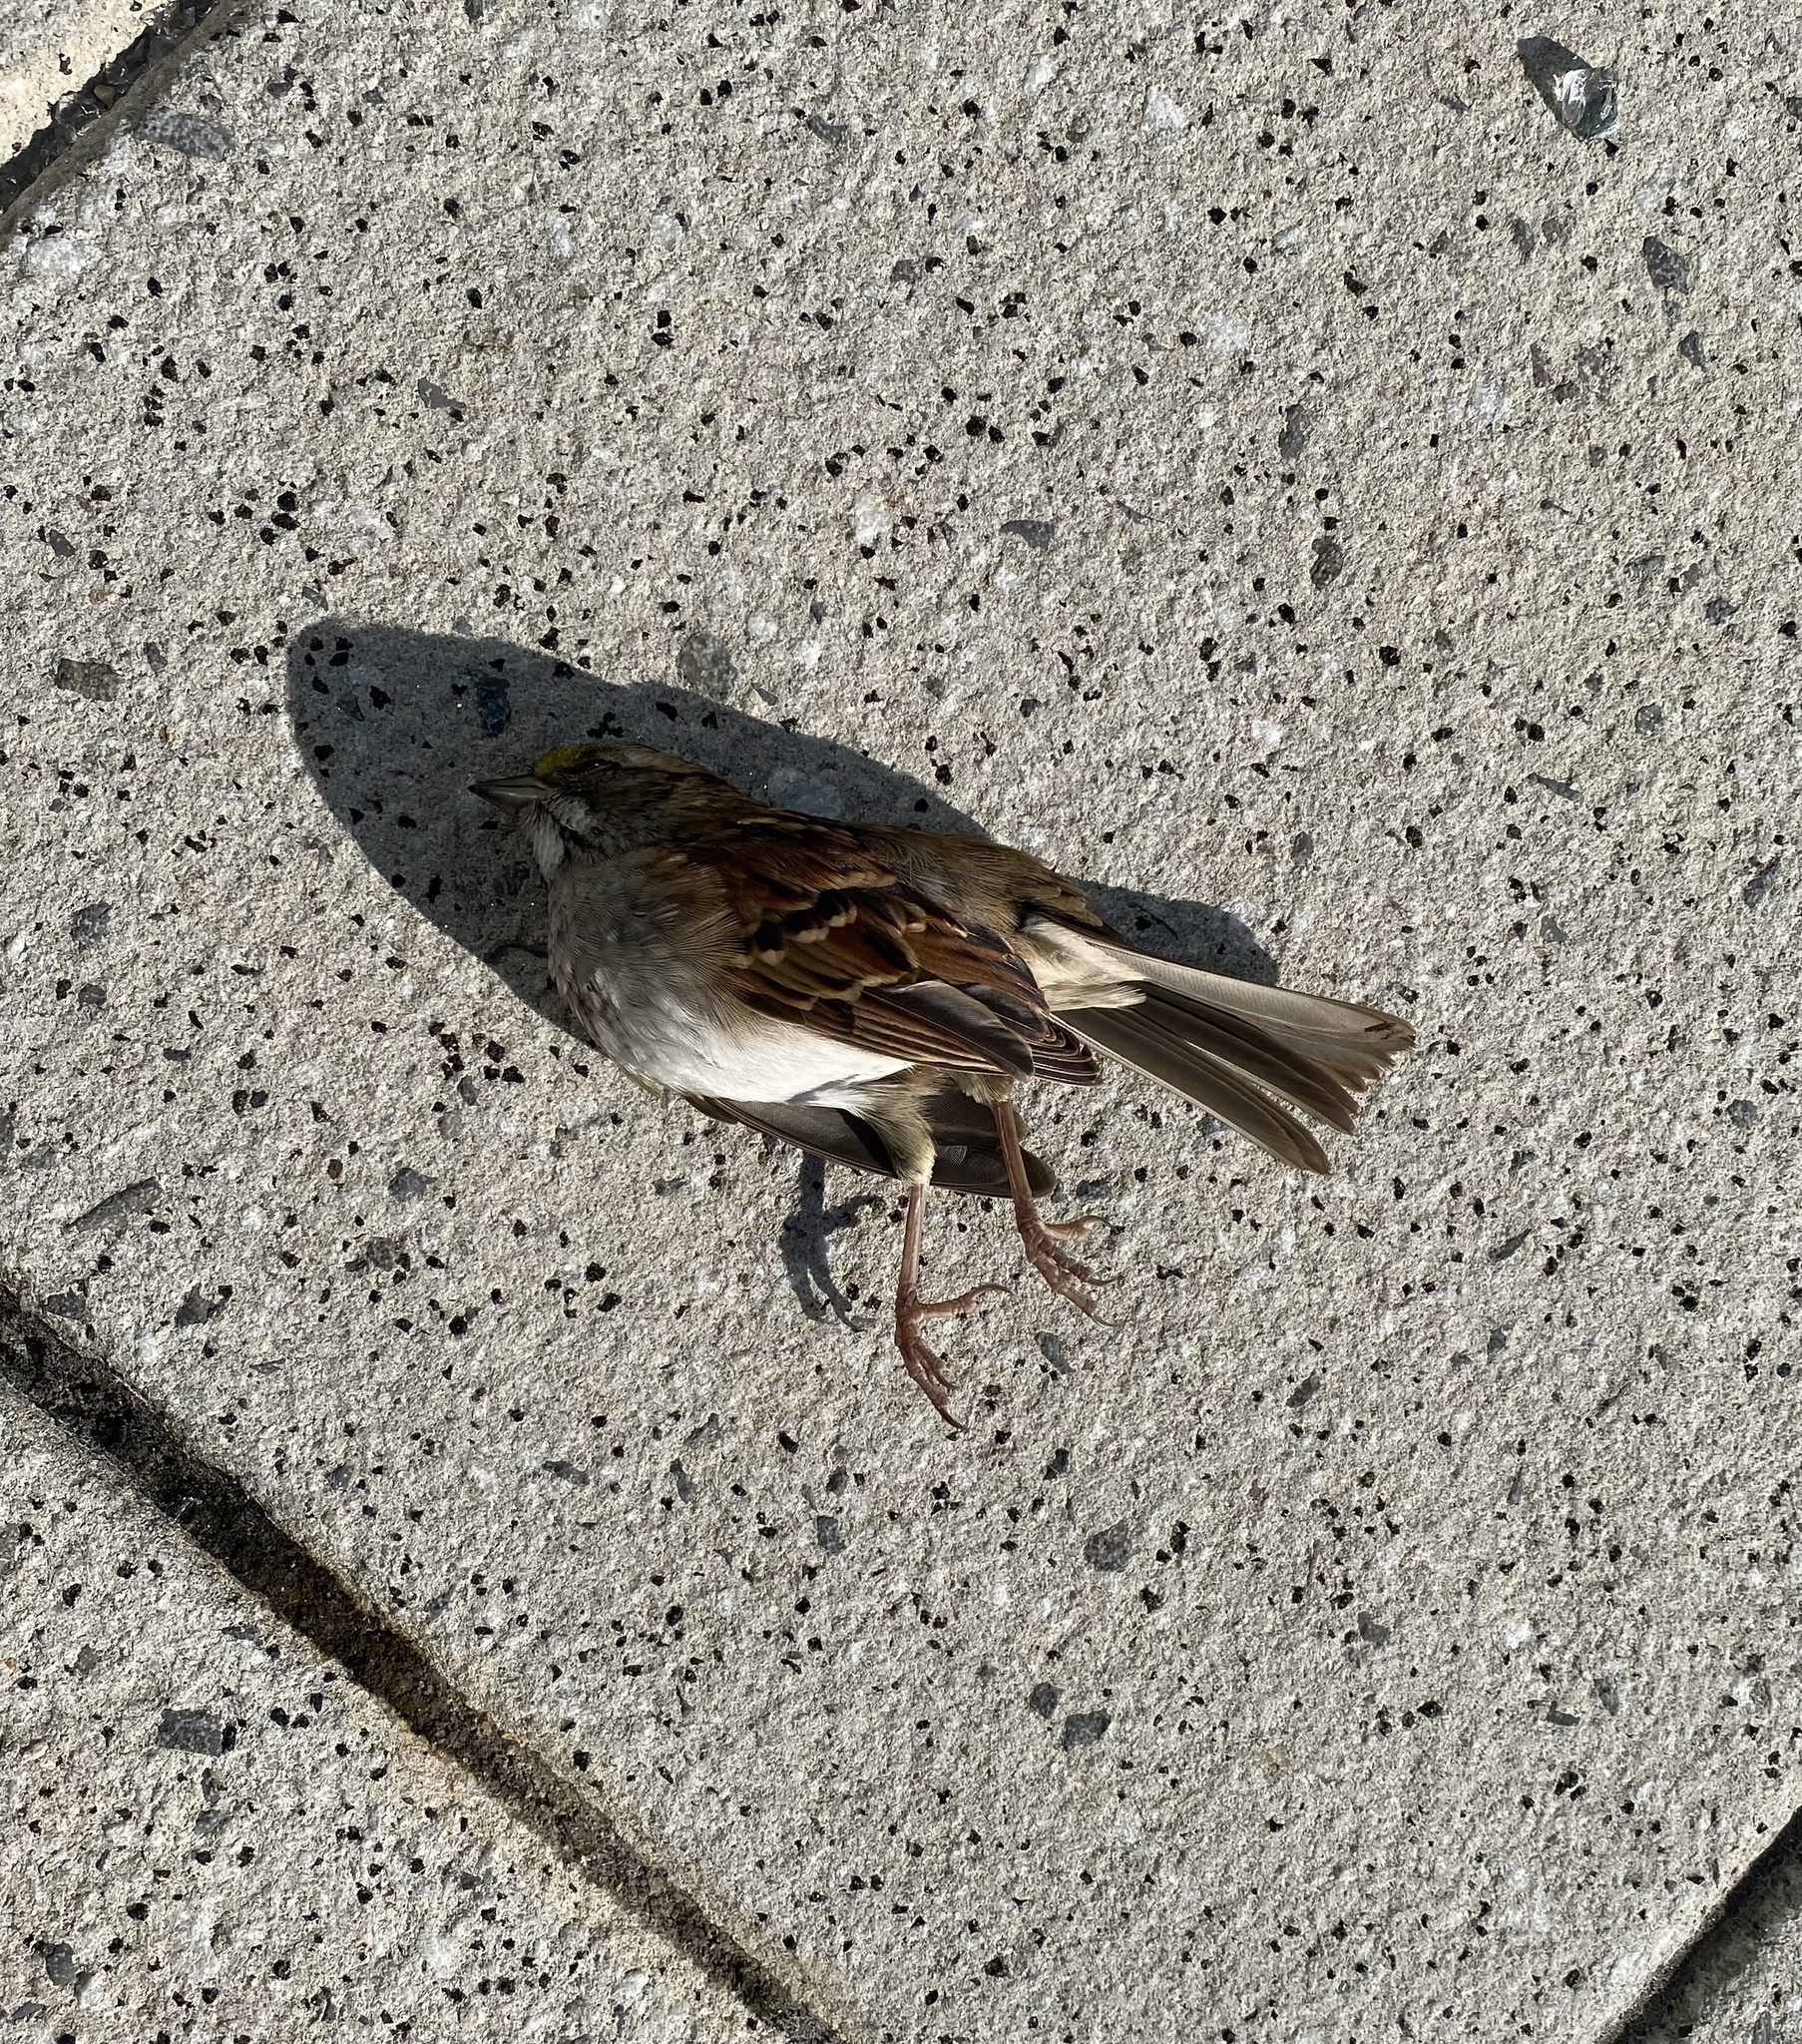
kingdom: Animalia
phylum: Chordata
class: Aves
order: Passeriformes
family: Passerellidae
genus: Zonotrichia
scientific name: Zonotrichia albicollis
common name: White-throated sparrow
